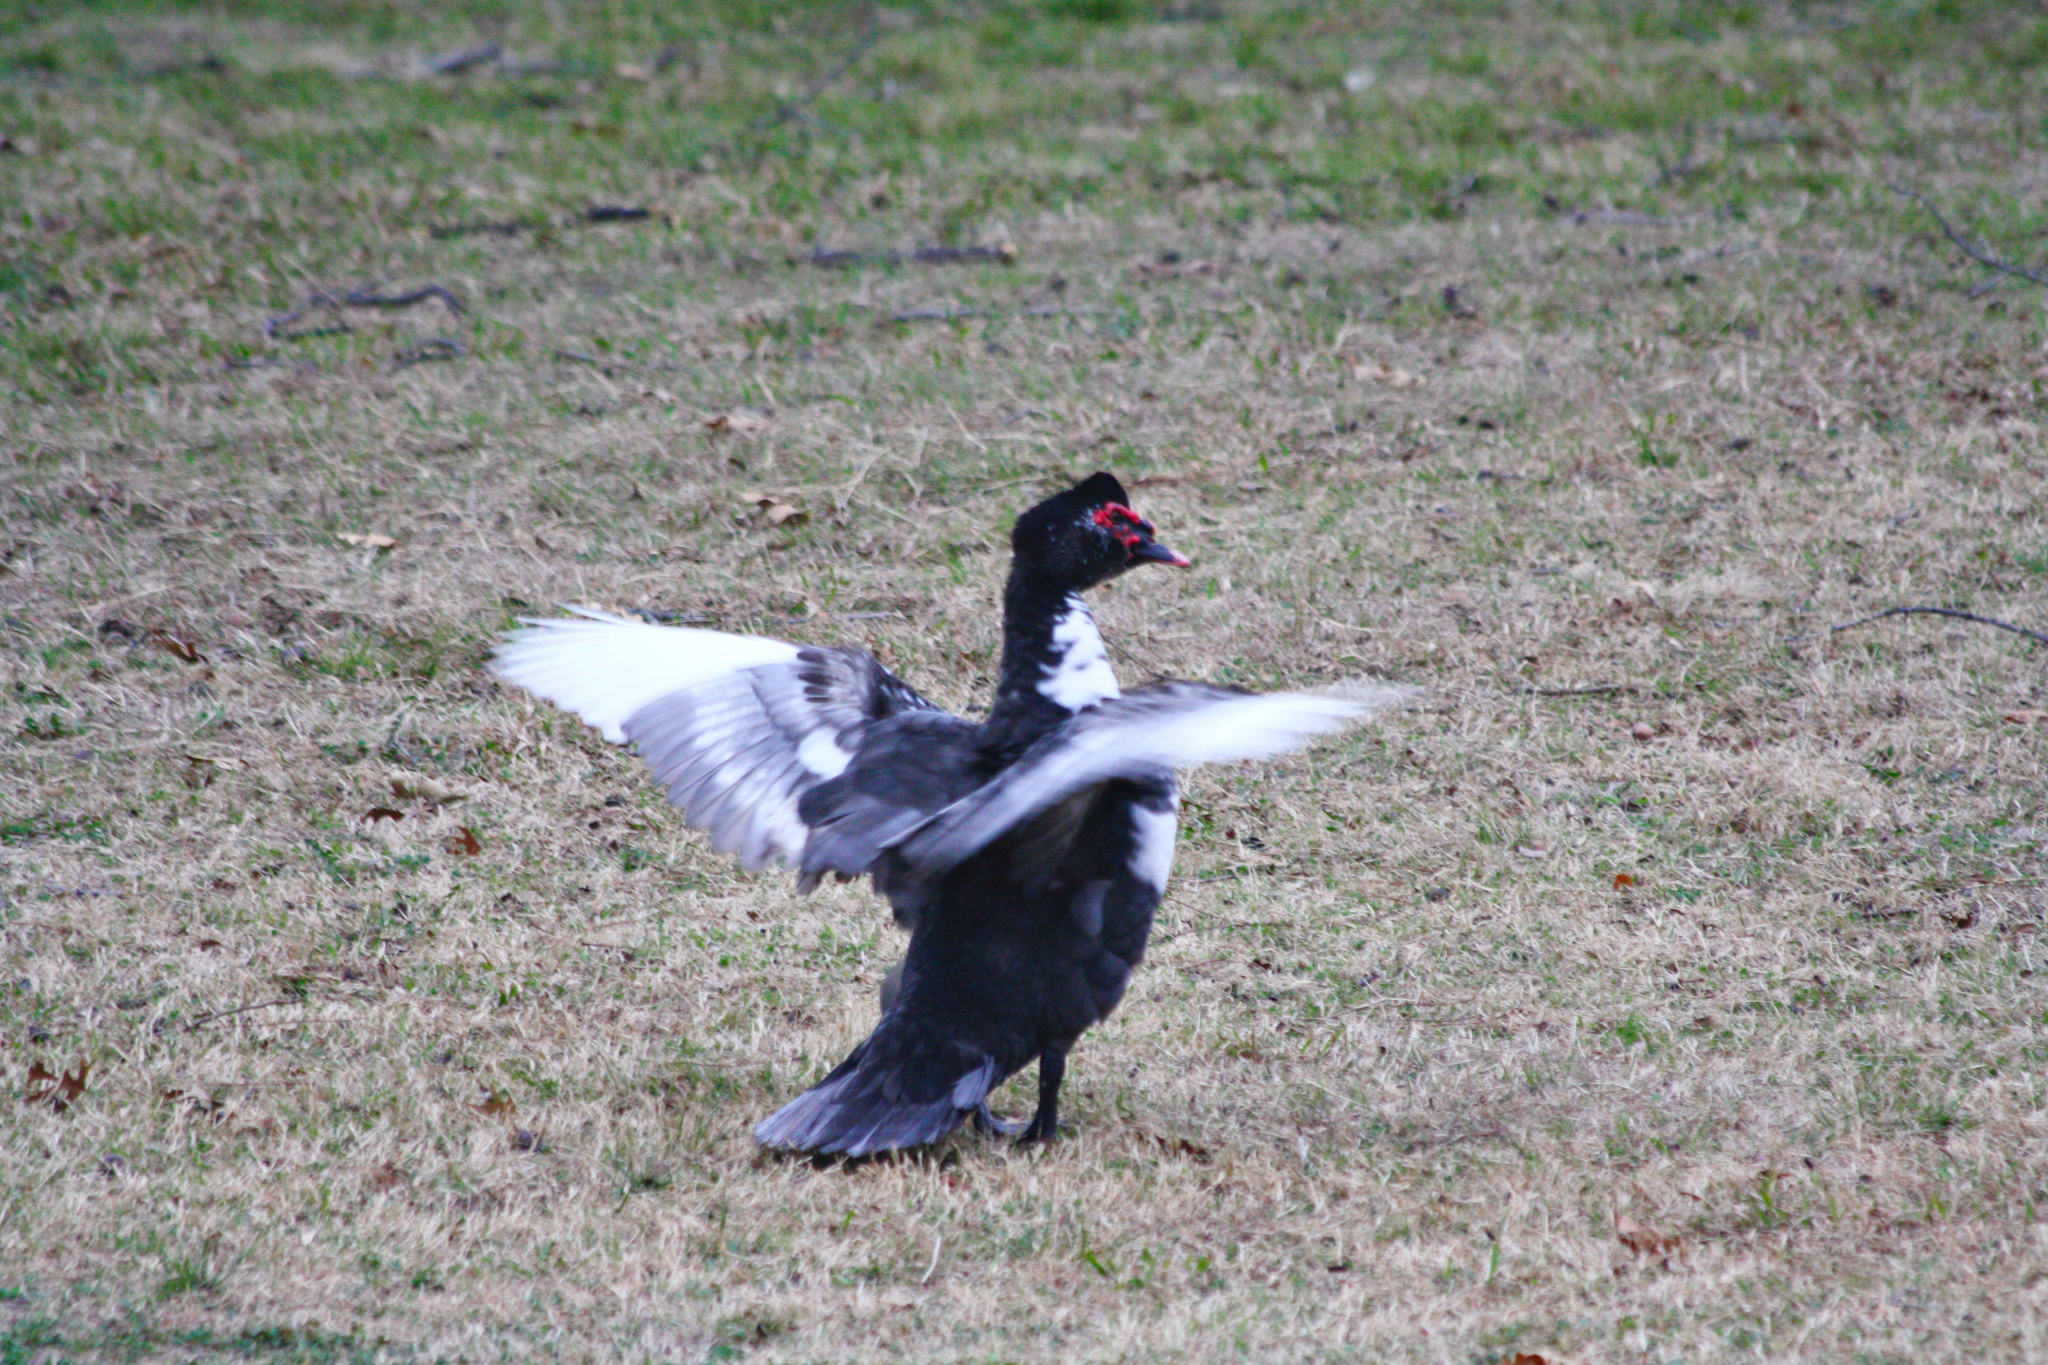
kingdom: Animalia
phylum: Chordata
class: Aves
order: Anseriformes
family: Anatidae
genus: Cairina
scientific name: Cairina moschata
